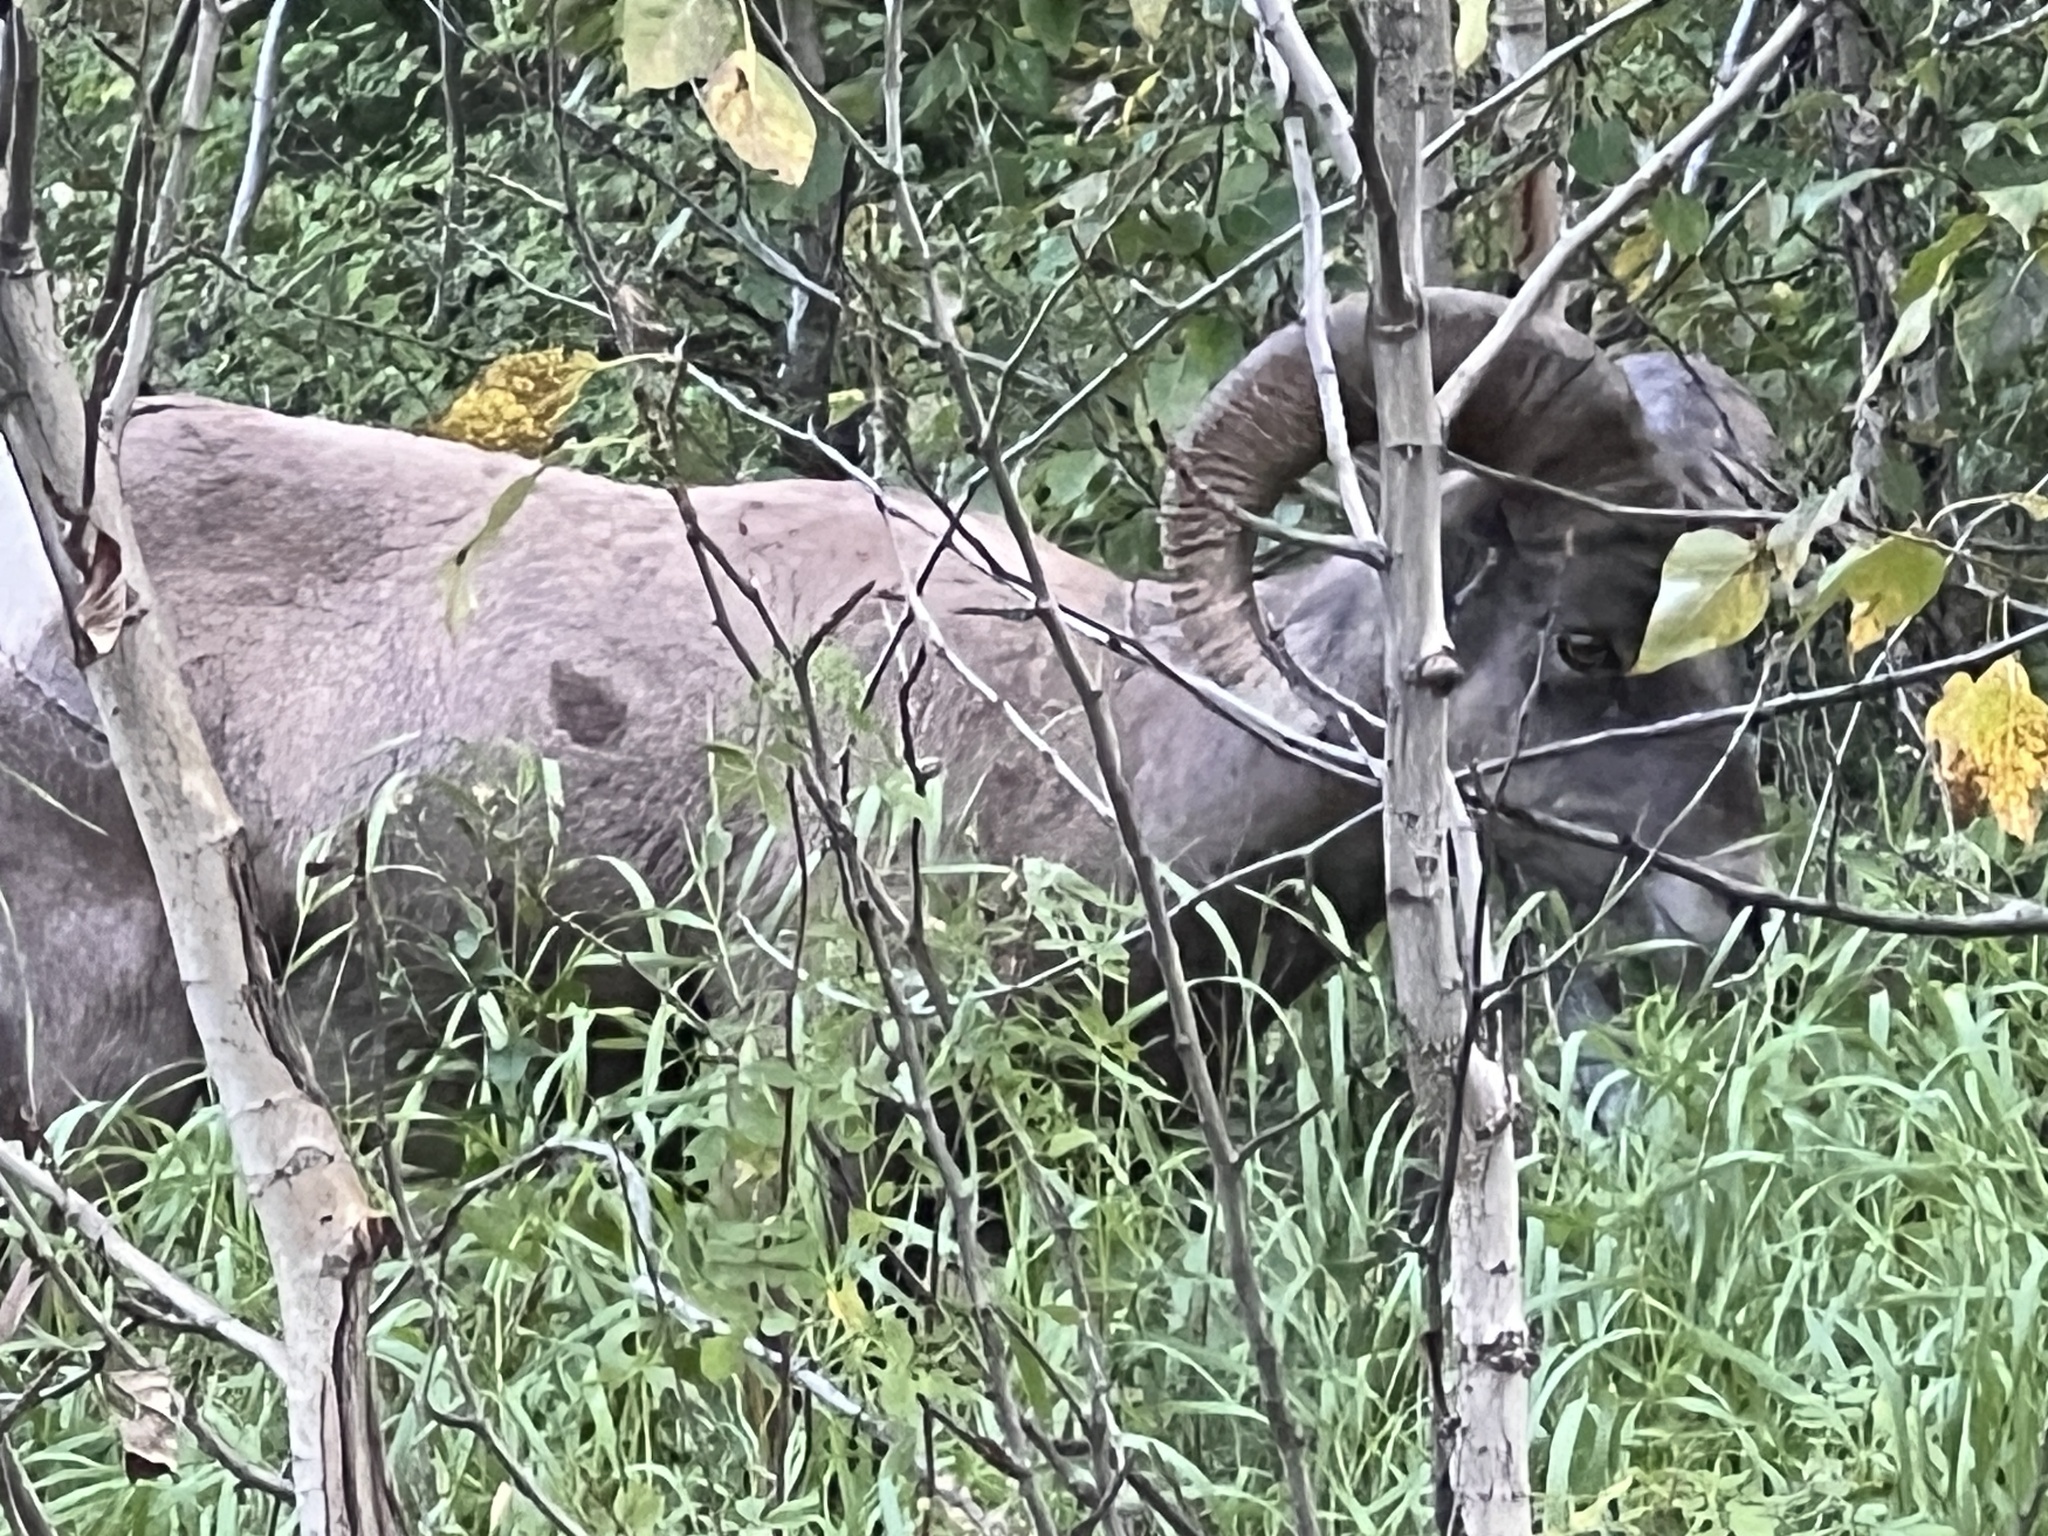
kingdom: Animalia
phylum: Chordata
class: Mammalia
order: Artiodactyla
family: Bovidae
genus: Ovis
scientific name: Ovis canadensis
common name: Bighorn sheep
